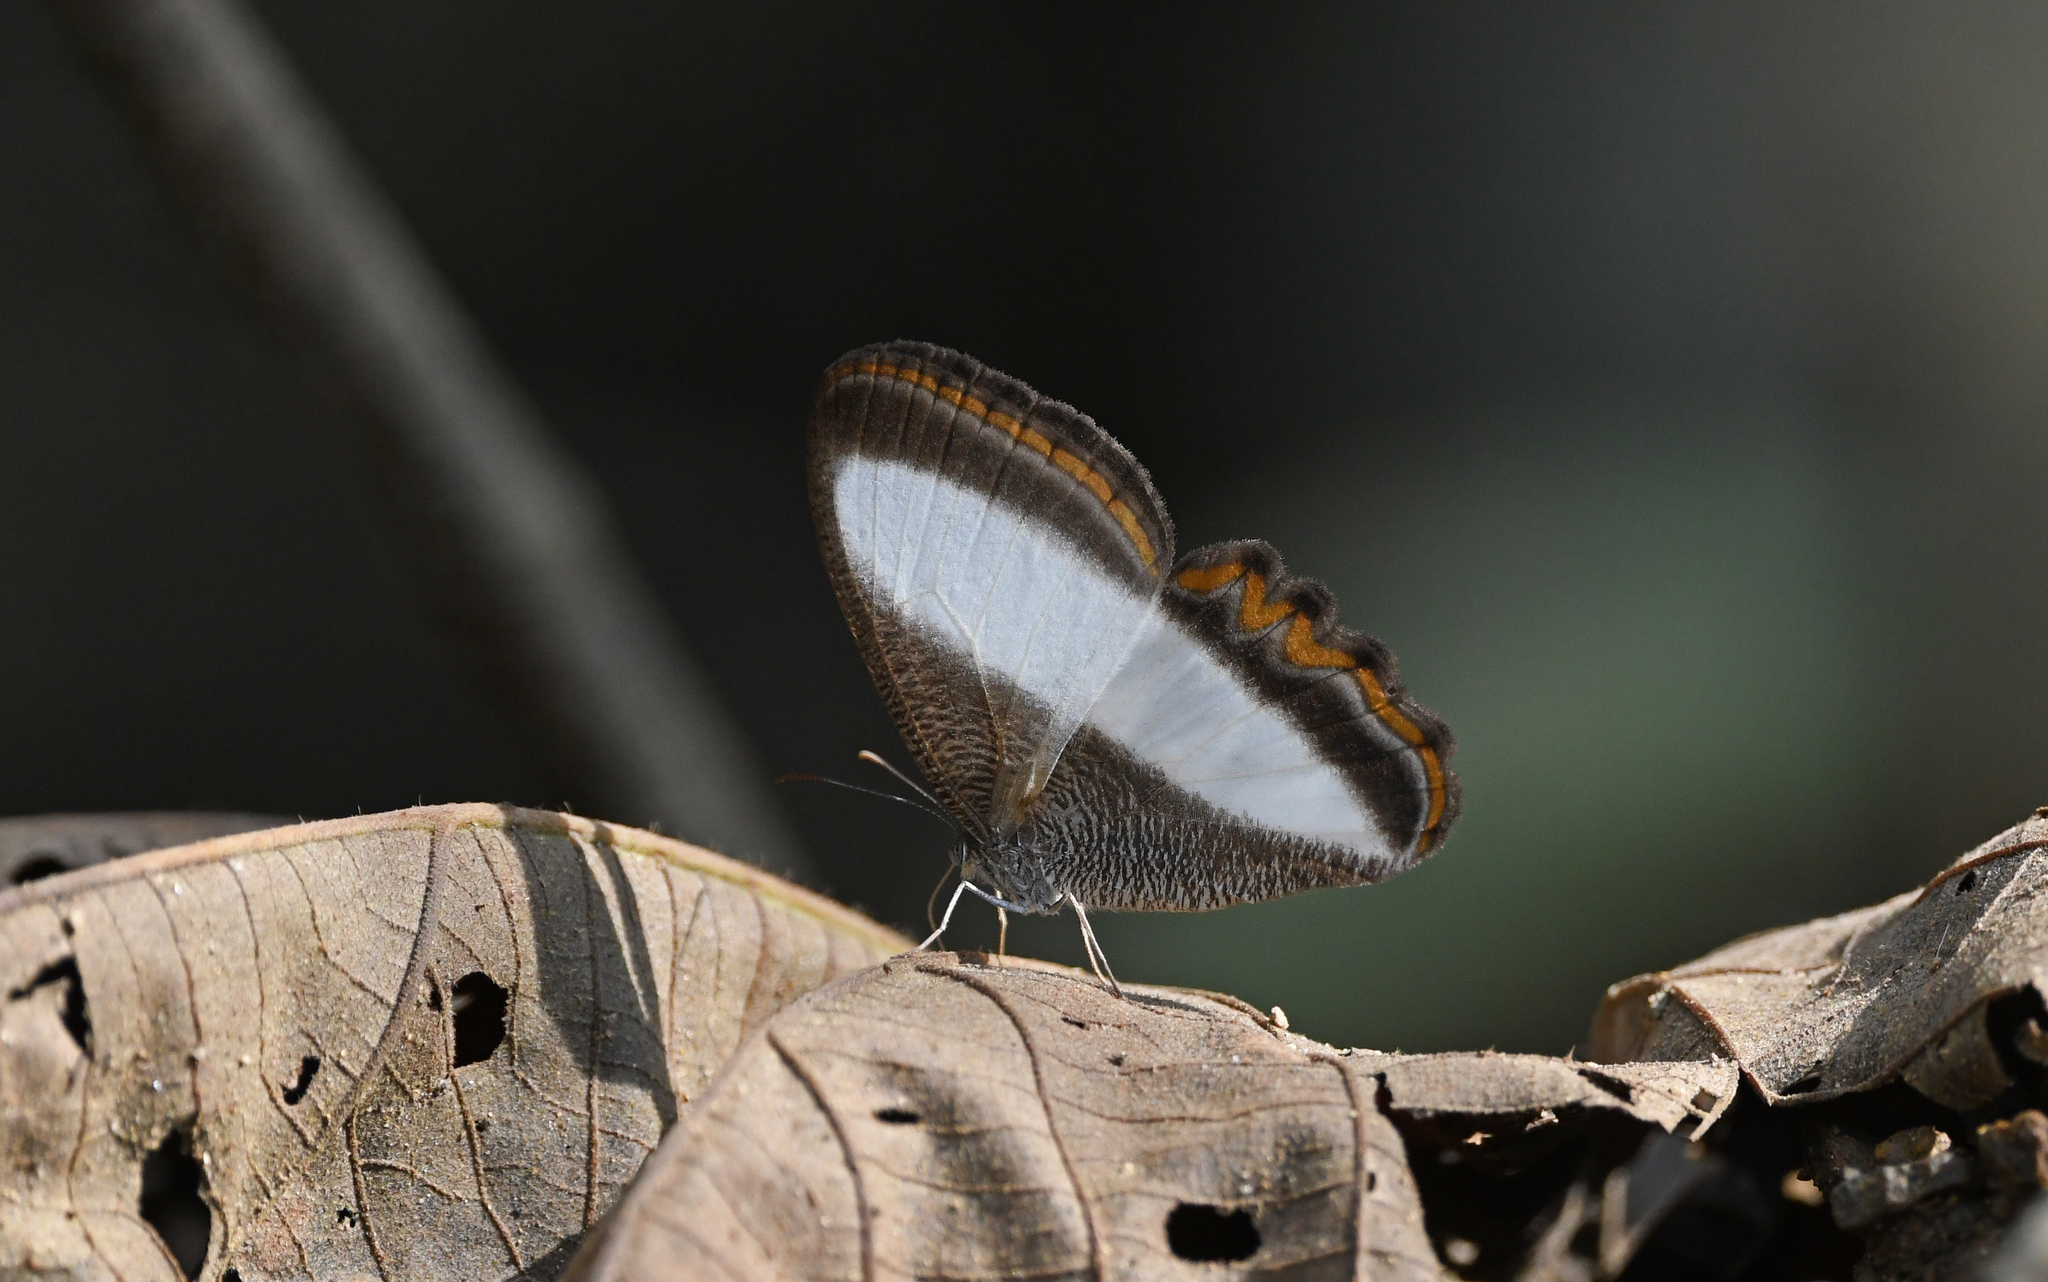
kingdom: Animalia
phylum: Arthropoda
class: Insecta
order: Lepidoptera
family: Nymphalidae
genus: Oressinoma
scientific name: Oressinoma typhla
